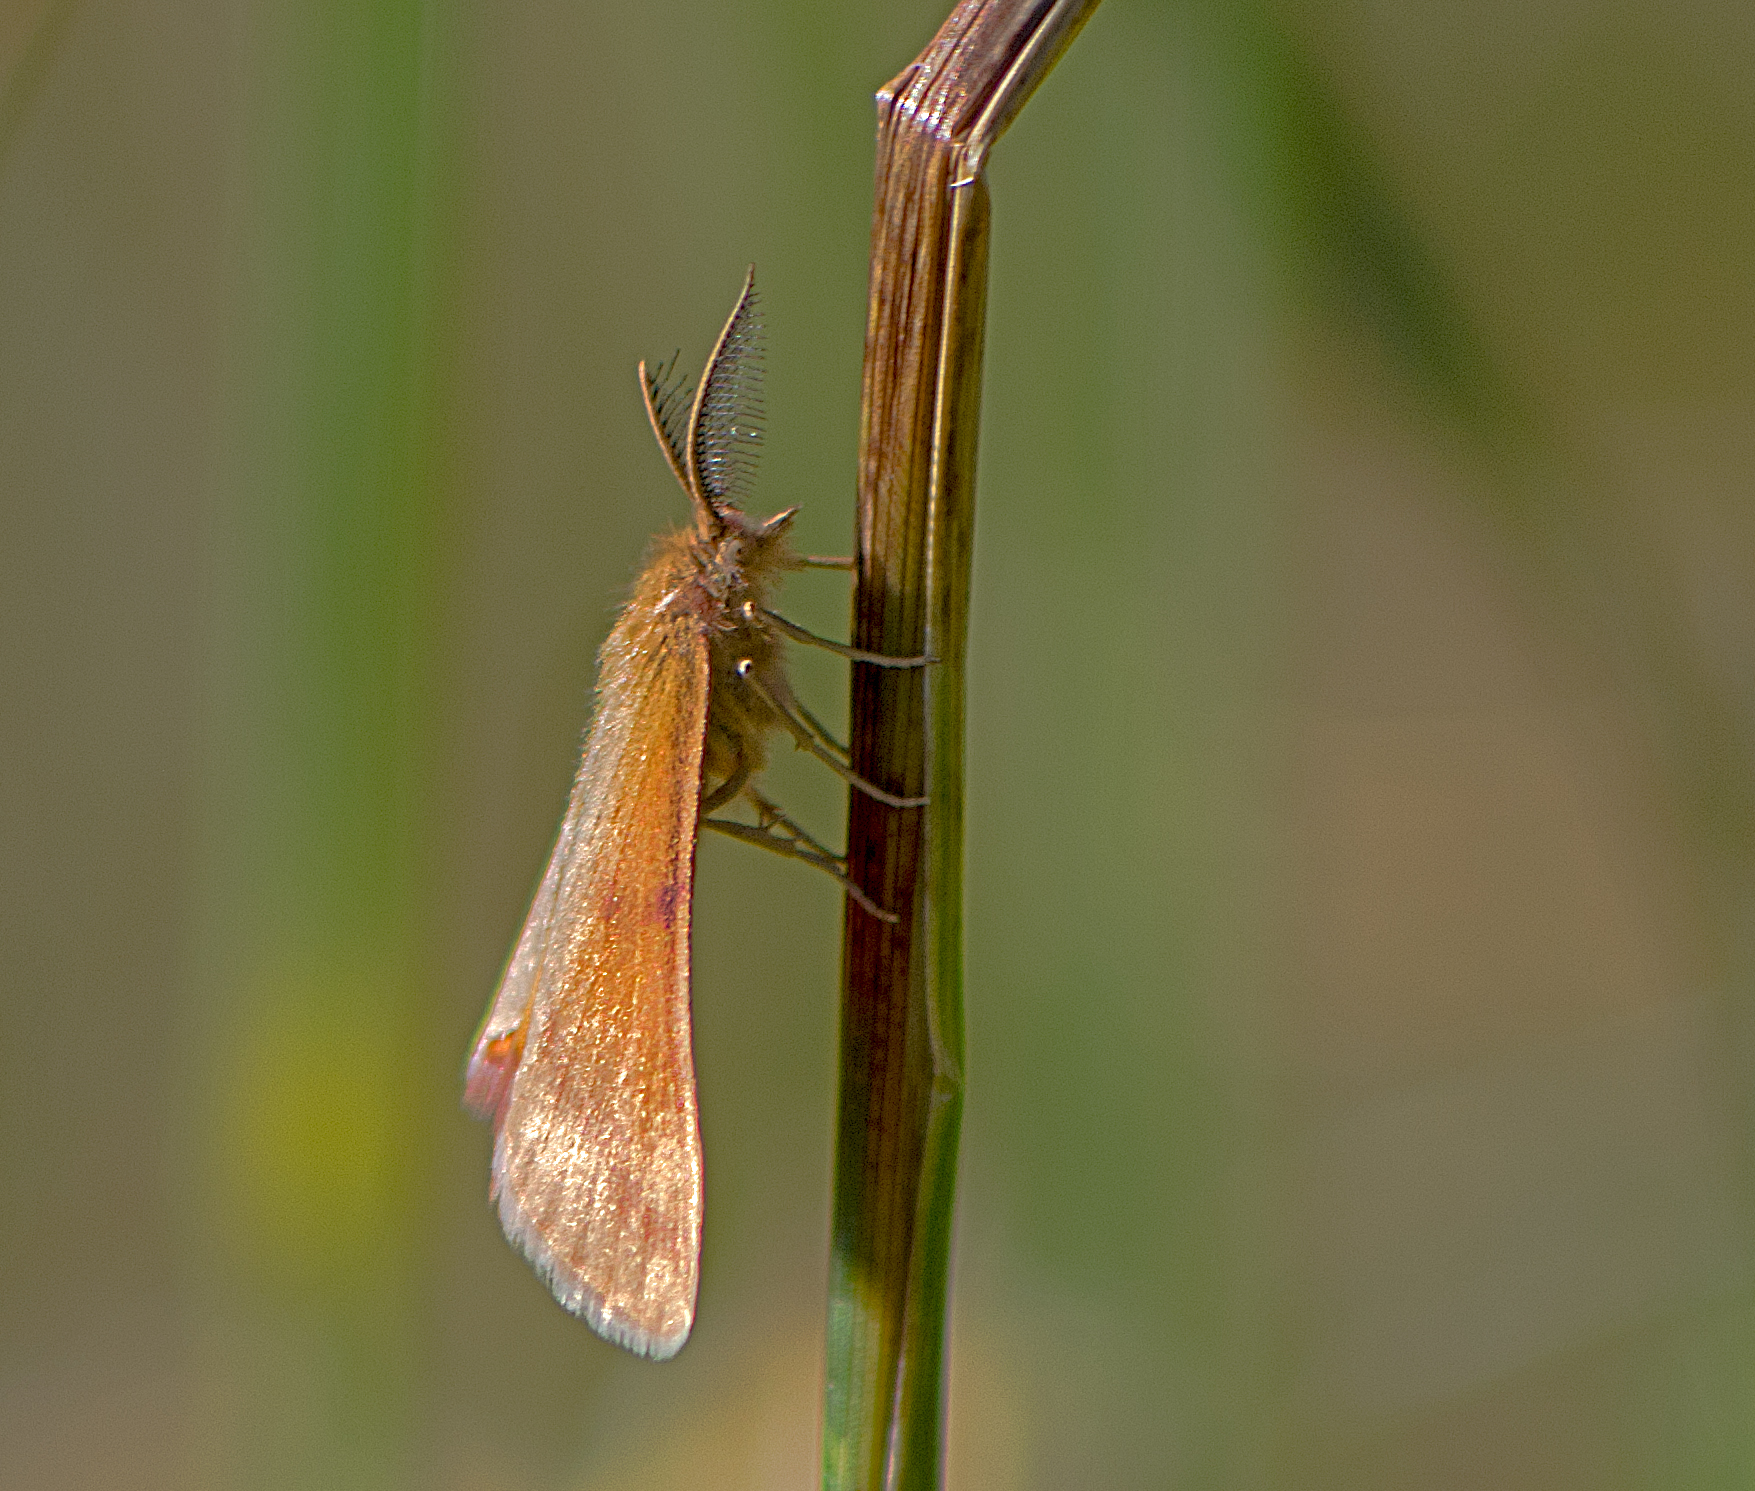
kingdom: Animalia
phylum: Arthropoda
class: Insecta
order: Lepidoptera
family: Geometridae
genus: Lythria
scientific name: Lythria purpuraria
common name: Purple-barred yellow
